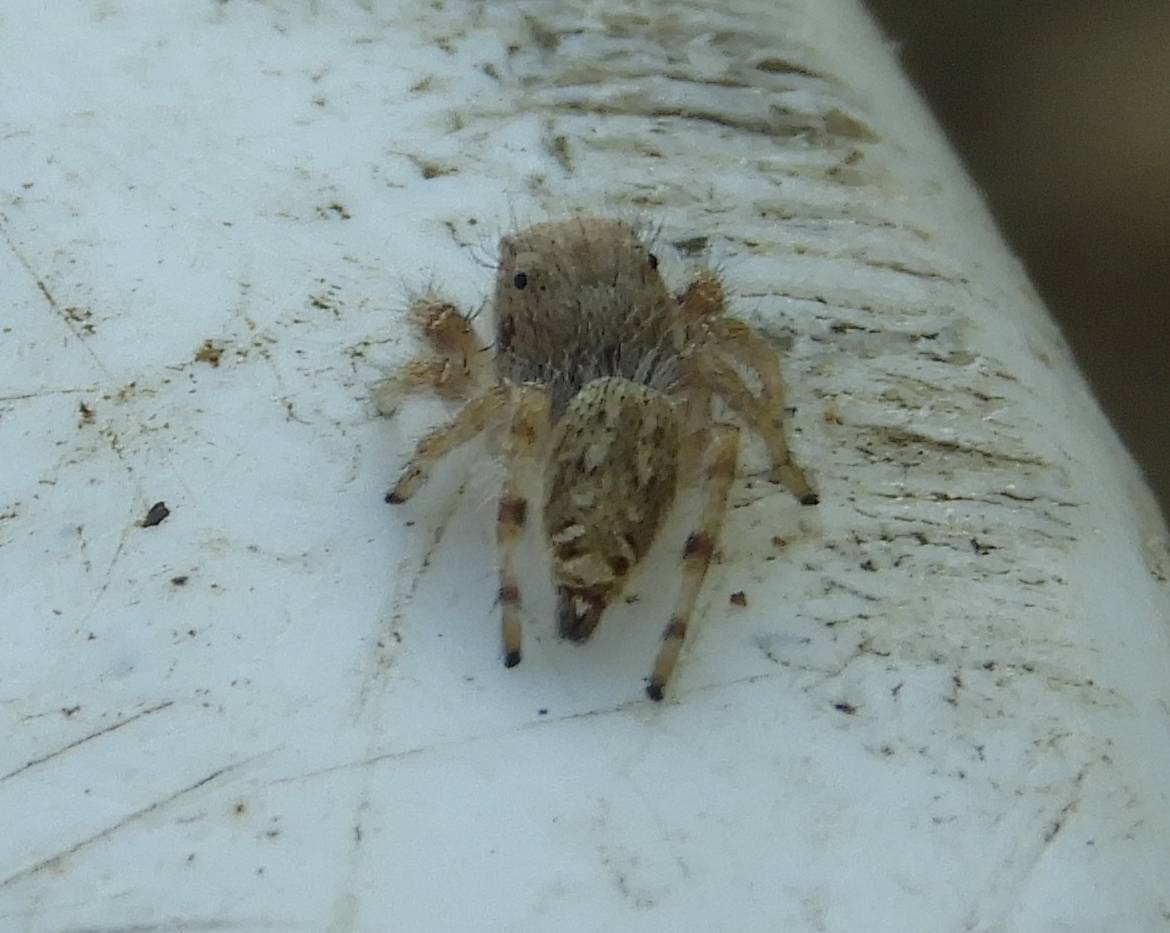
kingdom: Animalia
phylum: Arthropoda
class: Arachnida
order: Araneae
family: Salticidae
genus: Paraphidippus
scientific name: Paraphidippus fartilis
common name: Jumping spiders
